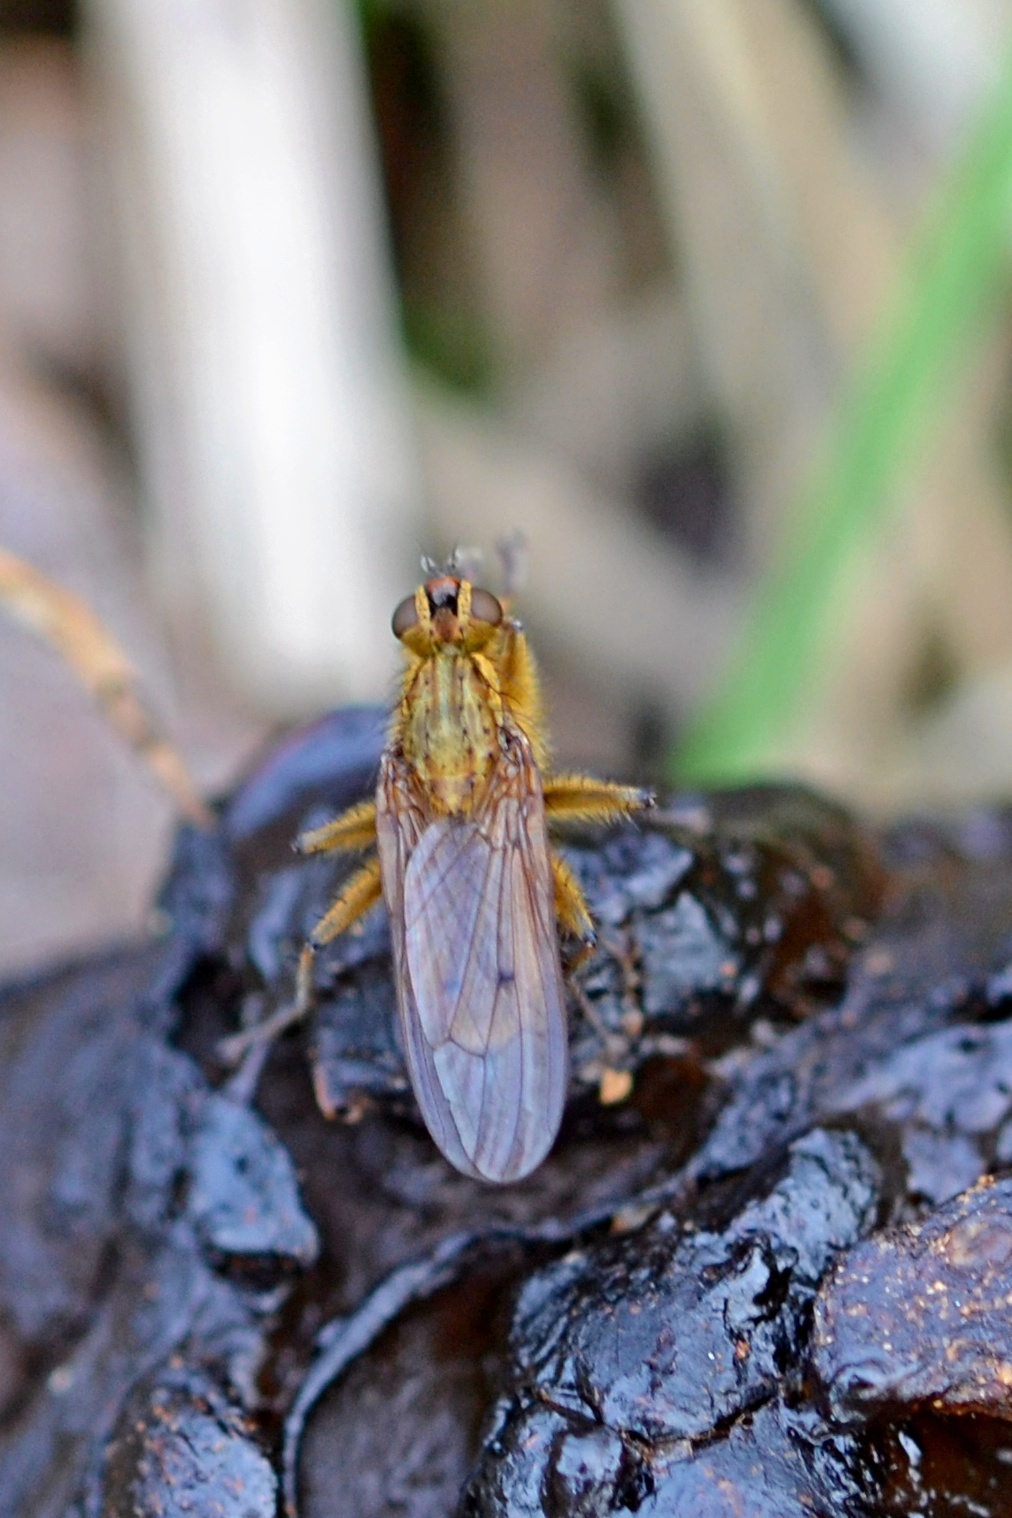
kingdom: Animalia
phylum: Arthropoda
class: Insecta
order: Diptera
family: Scathophagidae
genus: Scathophaga
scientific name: Scathophaga stercoraria
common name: Yellow dung fly
